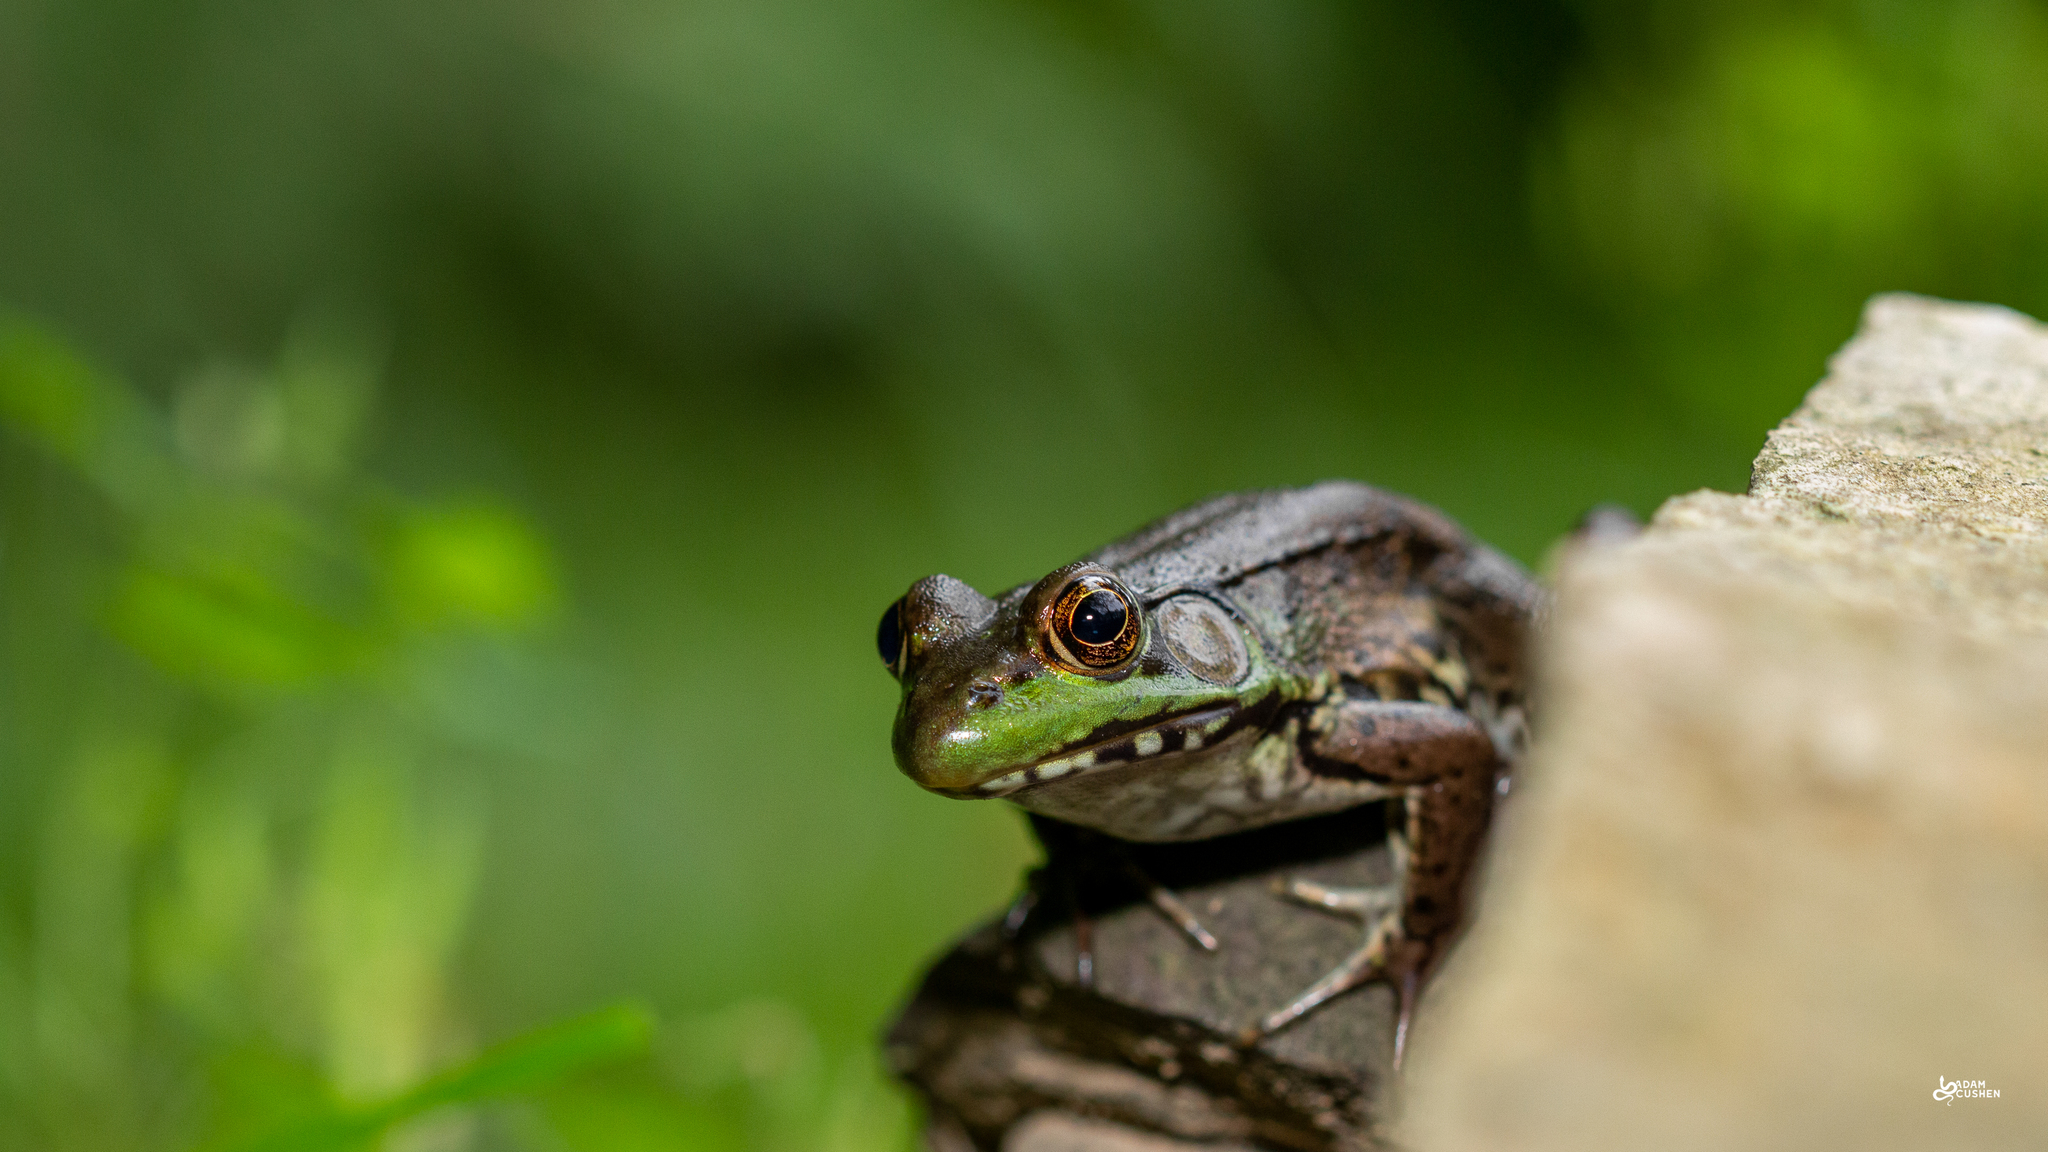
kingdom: Animalia
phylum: Chordata
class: Amphibia
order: Anura
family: Ranidae
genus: Lithobates
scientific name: Lithobates clamitans
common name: Green frog
